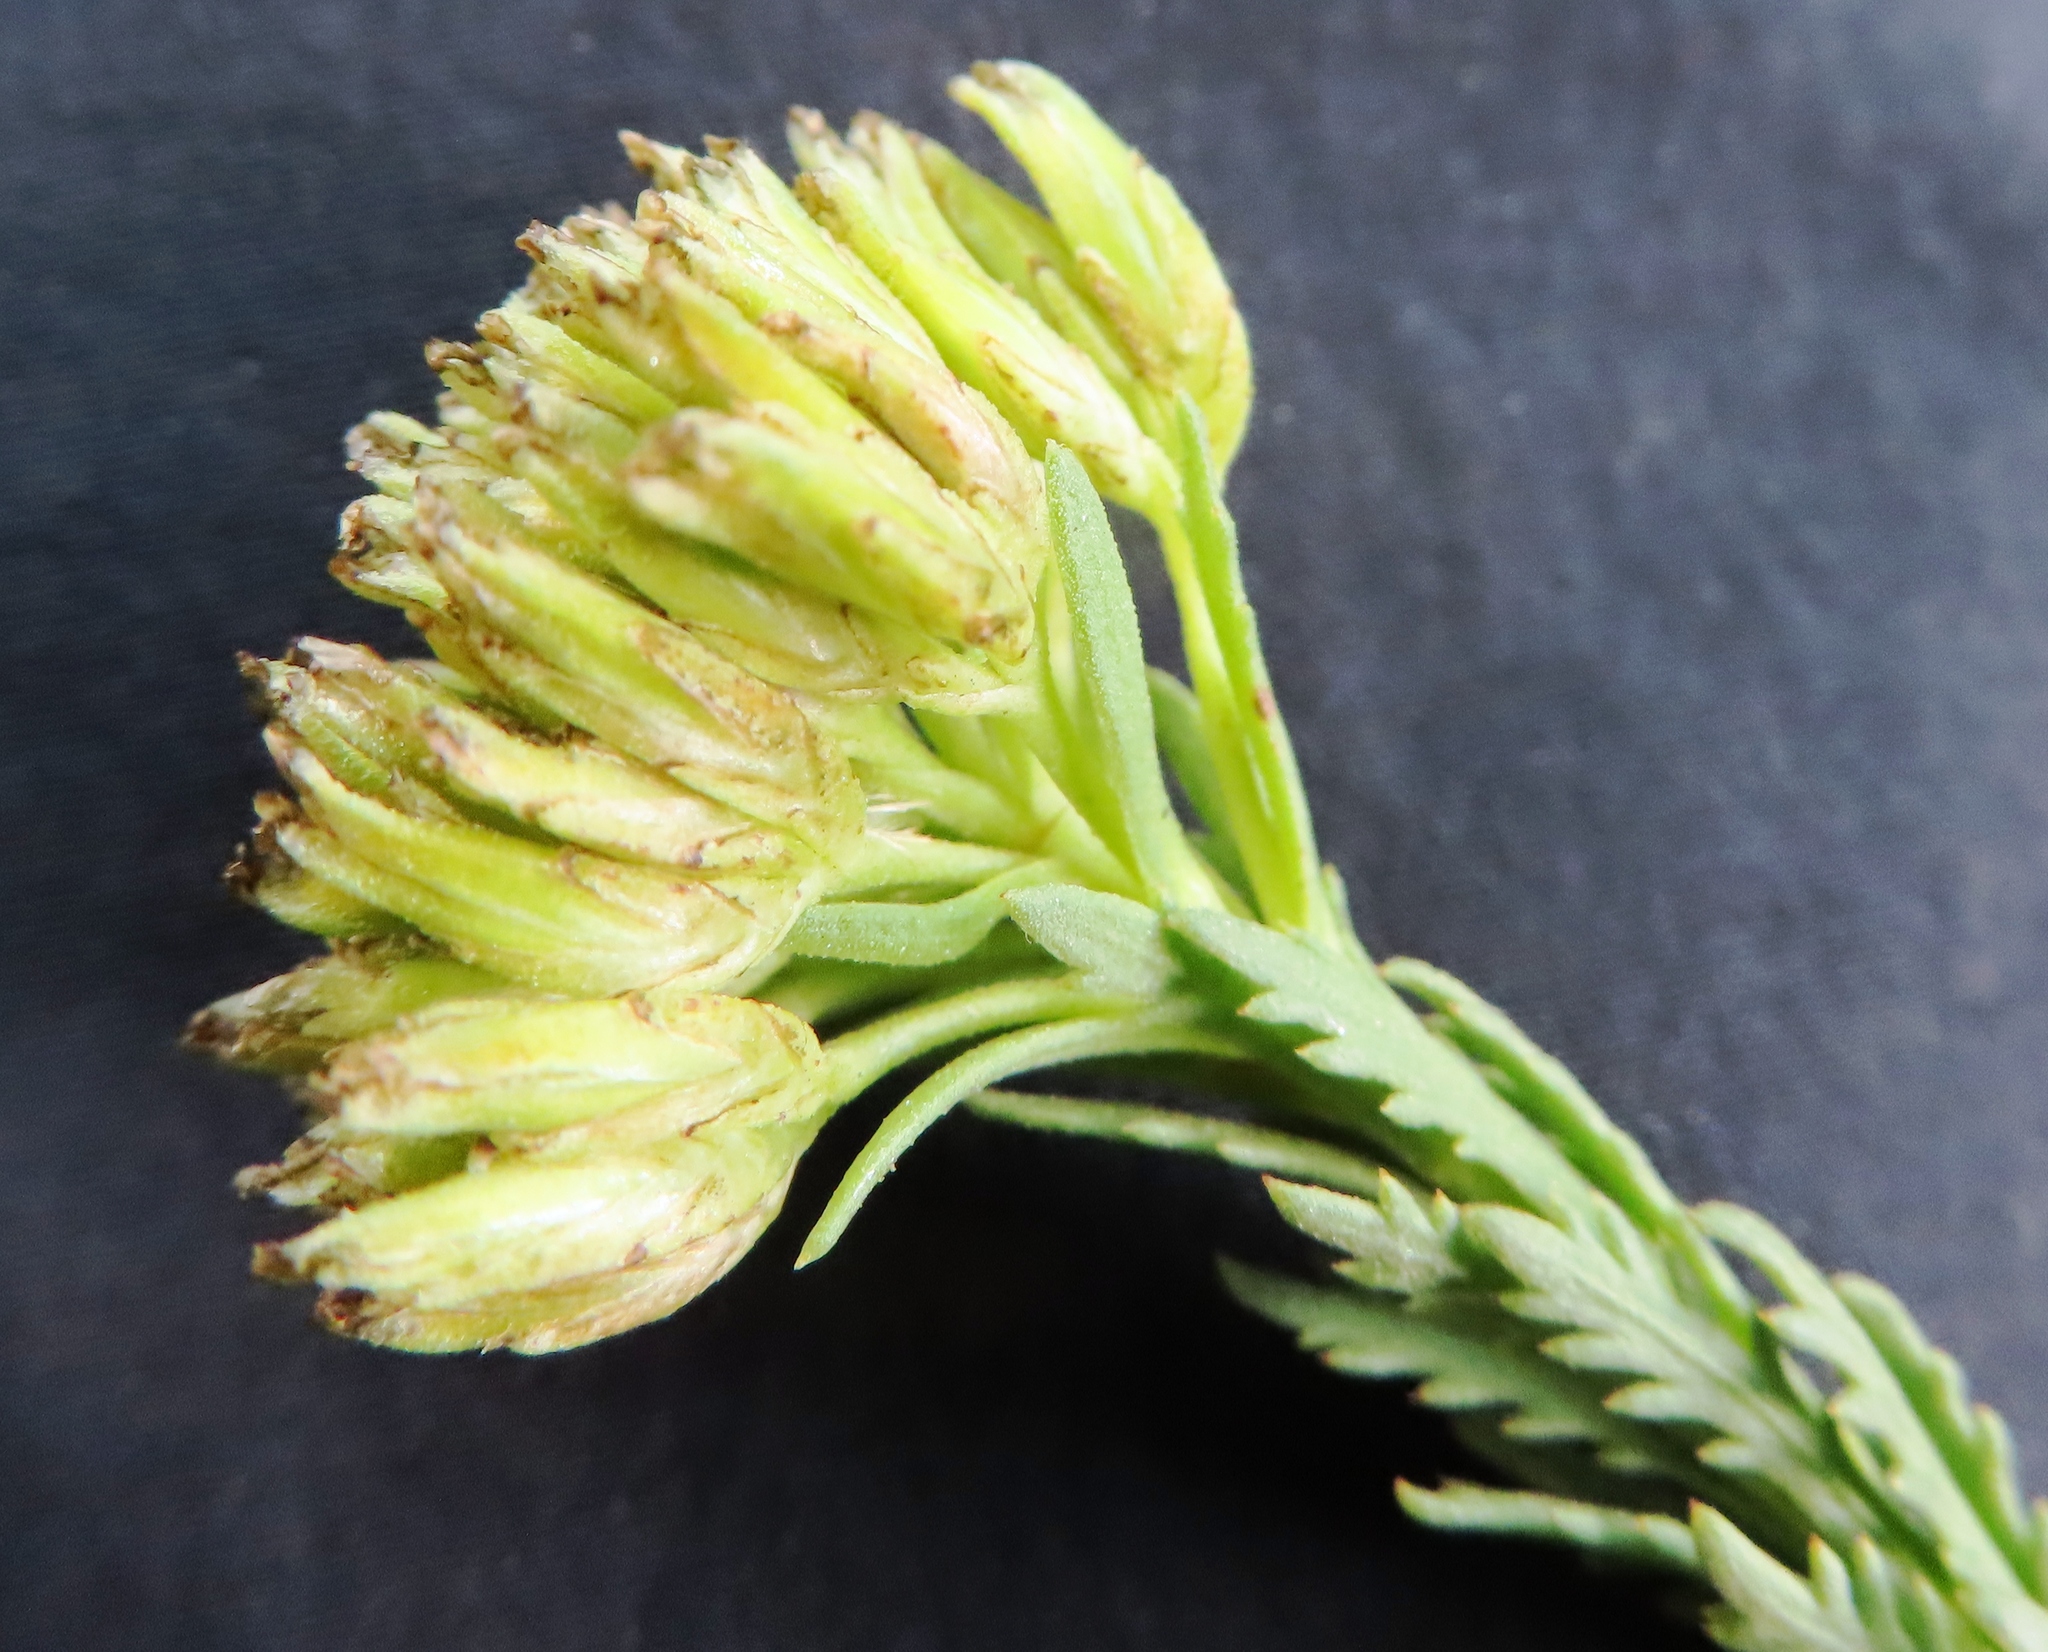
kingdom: Plantae
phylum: Tracheophyta
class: Magnoliopsida
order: Asterales
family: Asteraceae
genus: Hymenolepis
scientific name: Hymenolepis dentata
